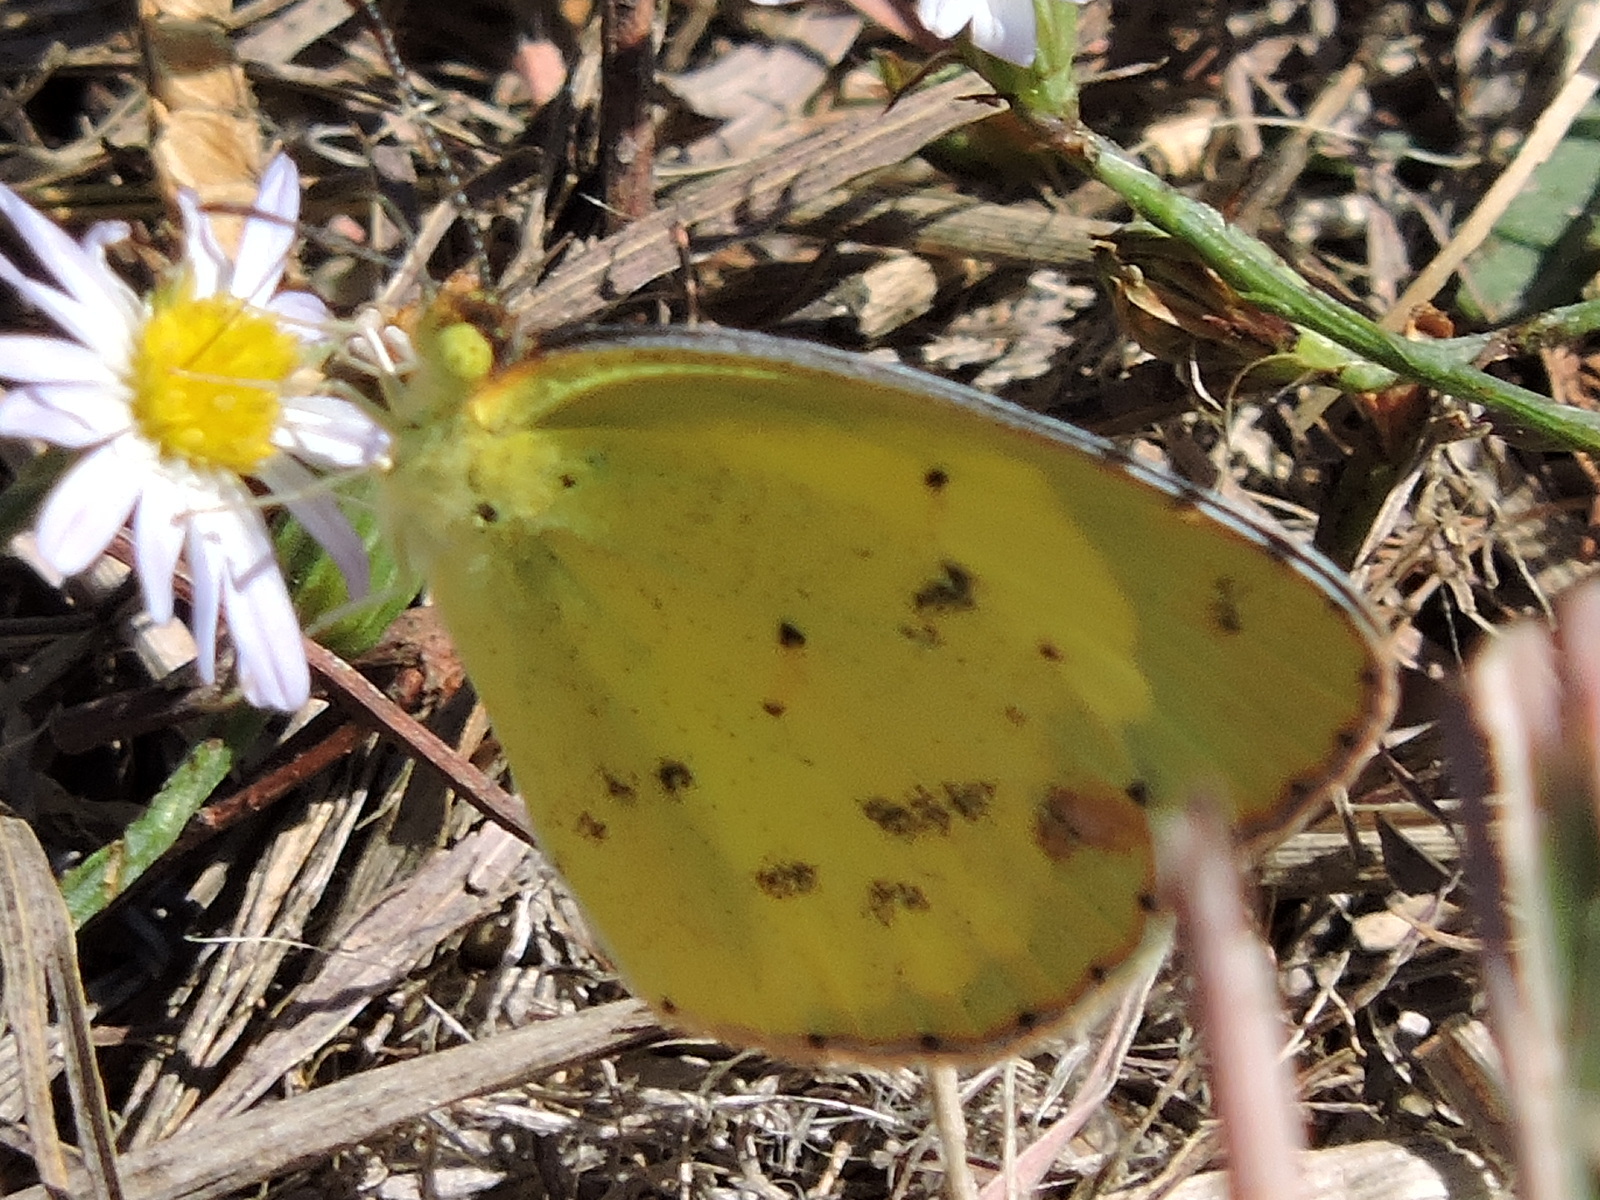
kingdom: Animalia
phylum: Arthropoda
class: Insecta
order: Lepidoptera
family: Pieridae
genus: Pyrisitia
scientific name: Pyrisitia lisa
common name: Little yellow
